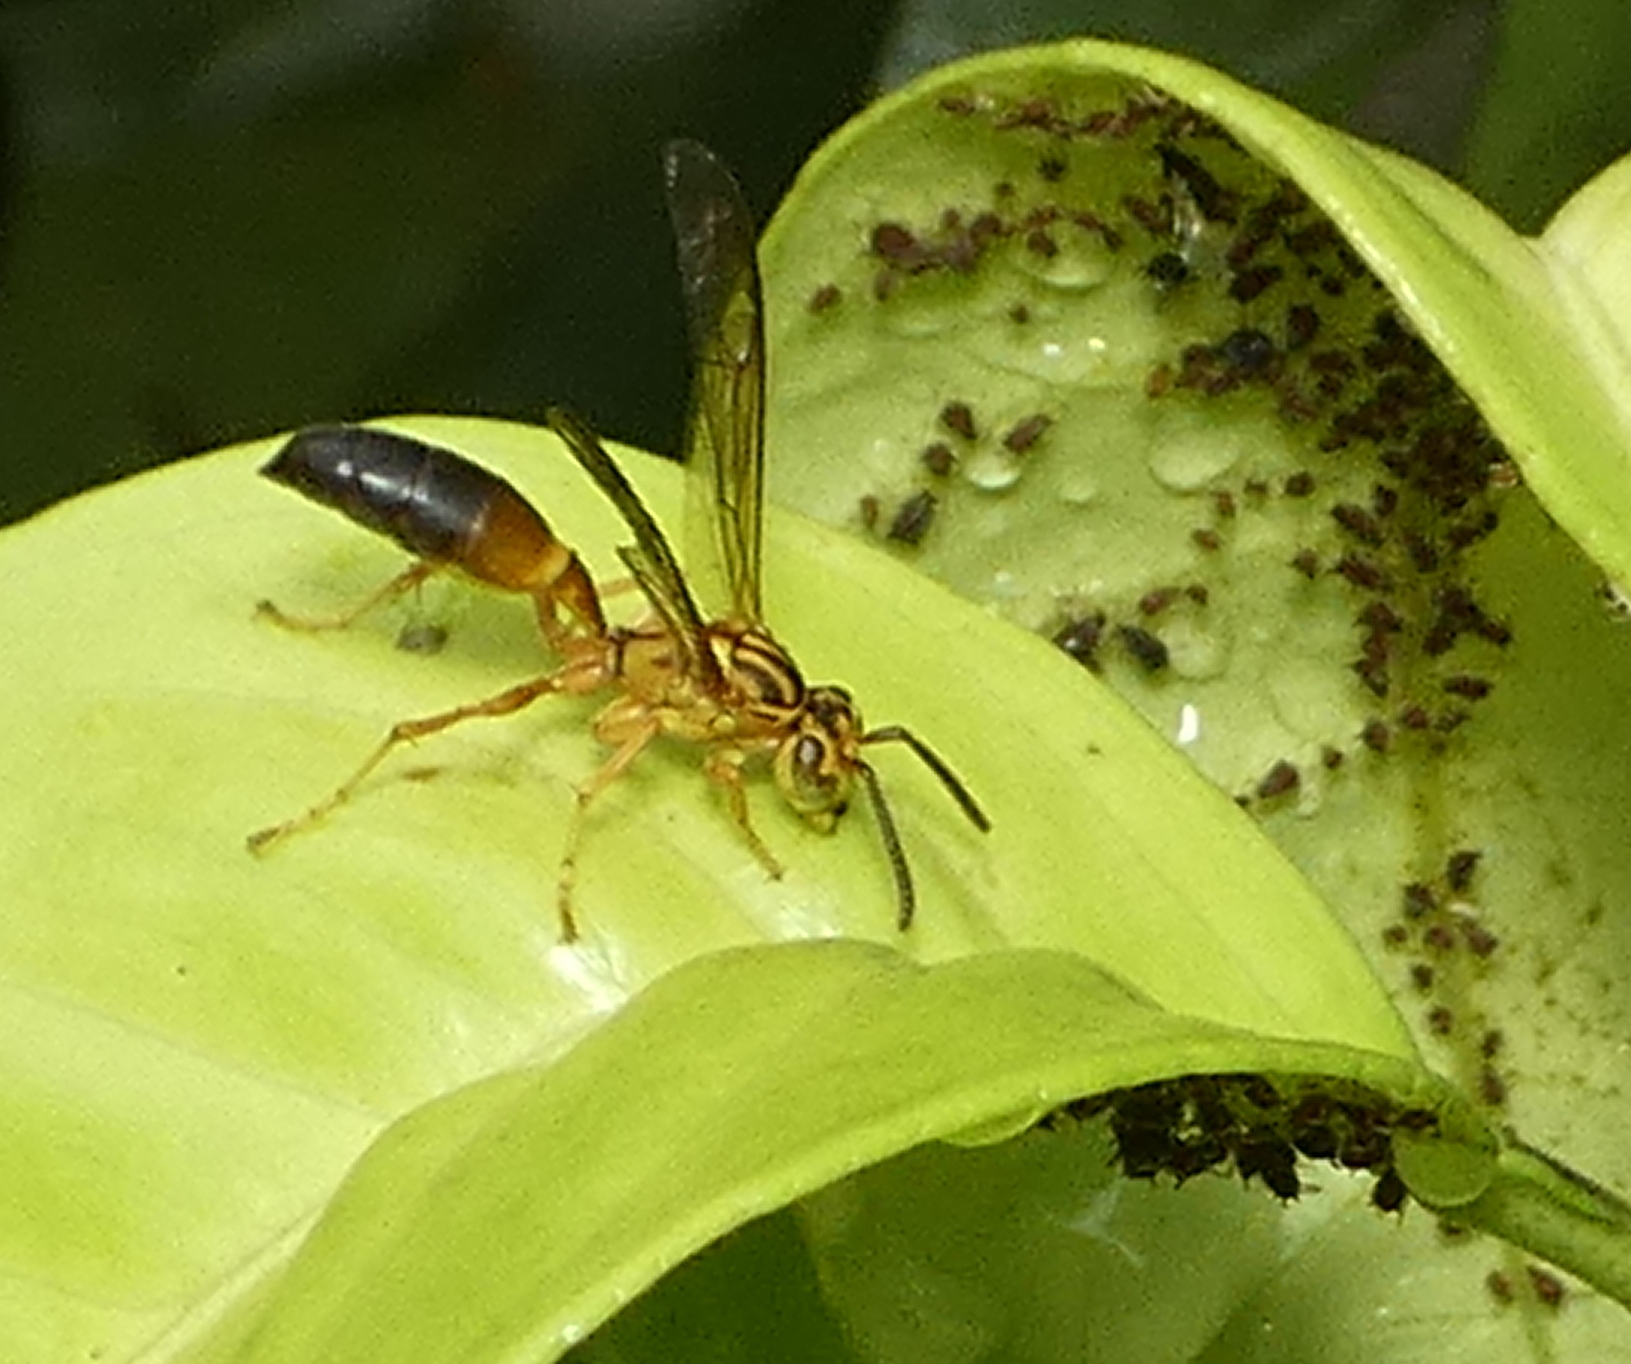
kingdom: Animalia
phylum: Arthropoda
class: Insecta
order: Hymenoptera
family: Vespidae
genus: Agelaia
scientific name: Agelaia pallipes
